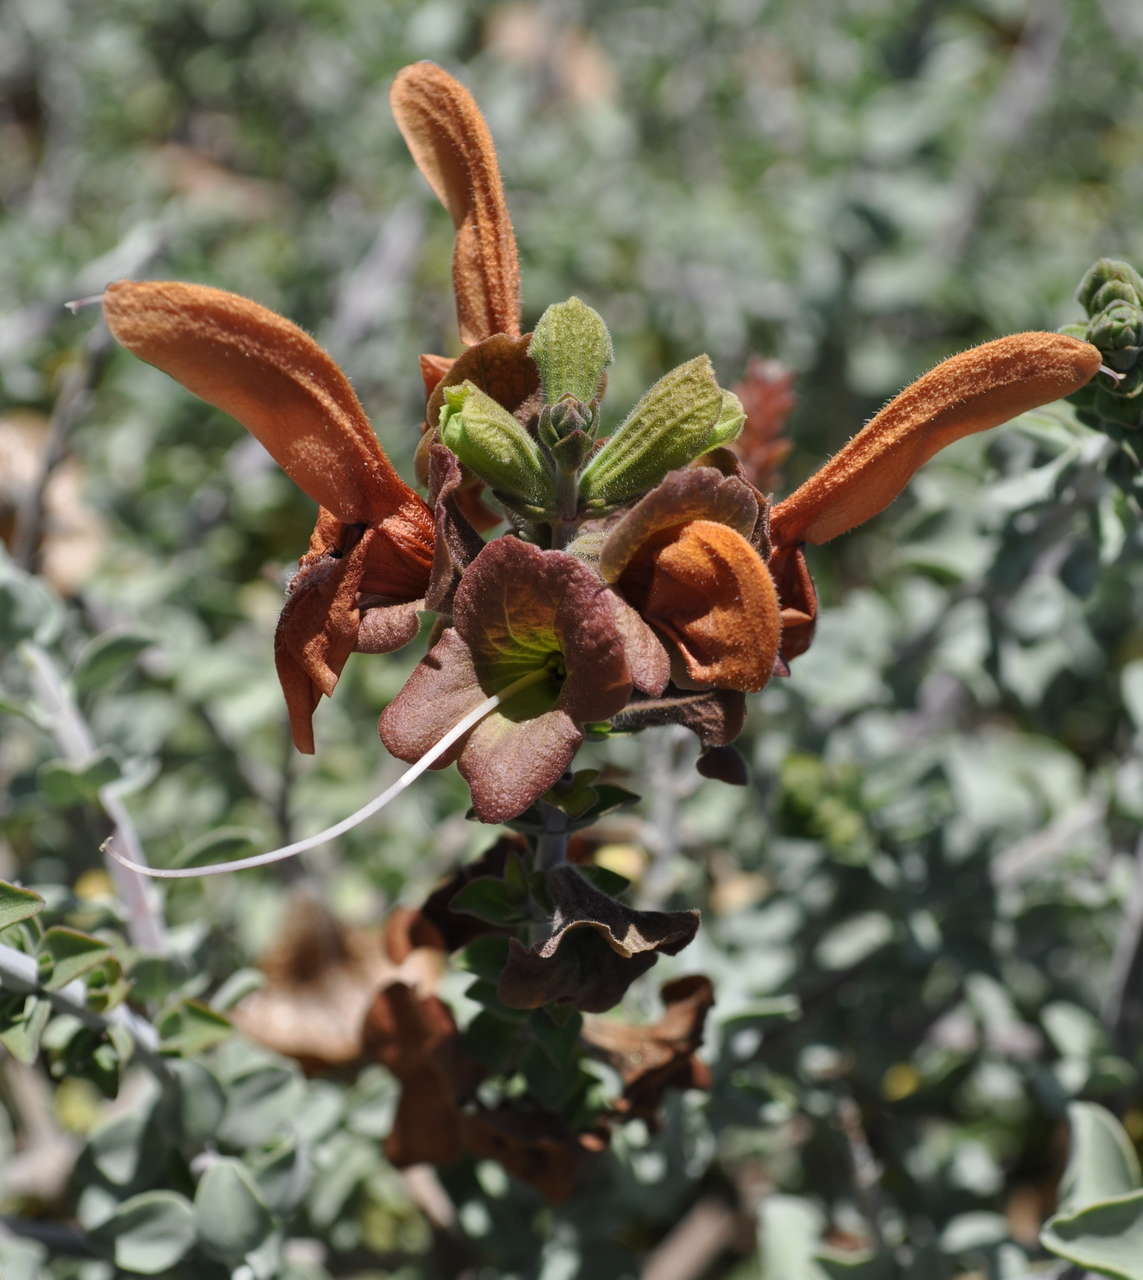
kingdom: Plantae
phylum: Tracheophyta
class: Magnoliopsida
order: Lamiales
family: Lamiaceae
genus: Salvia
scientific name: Salvia aurea
